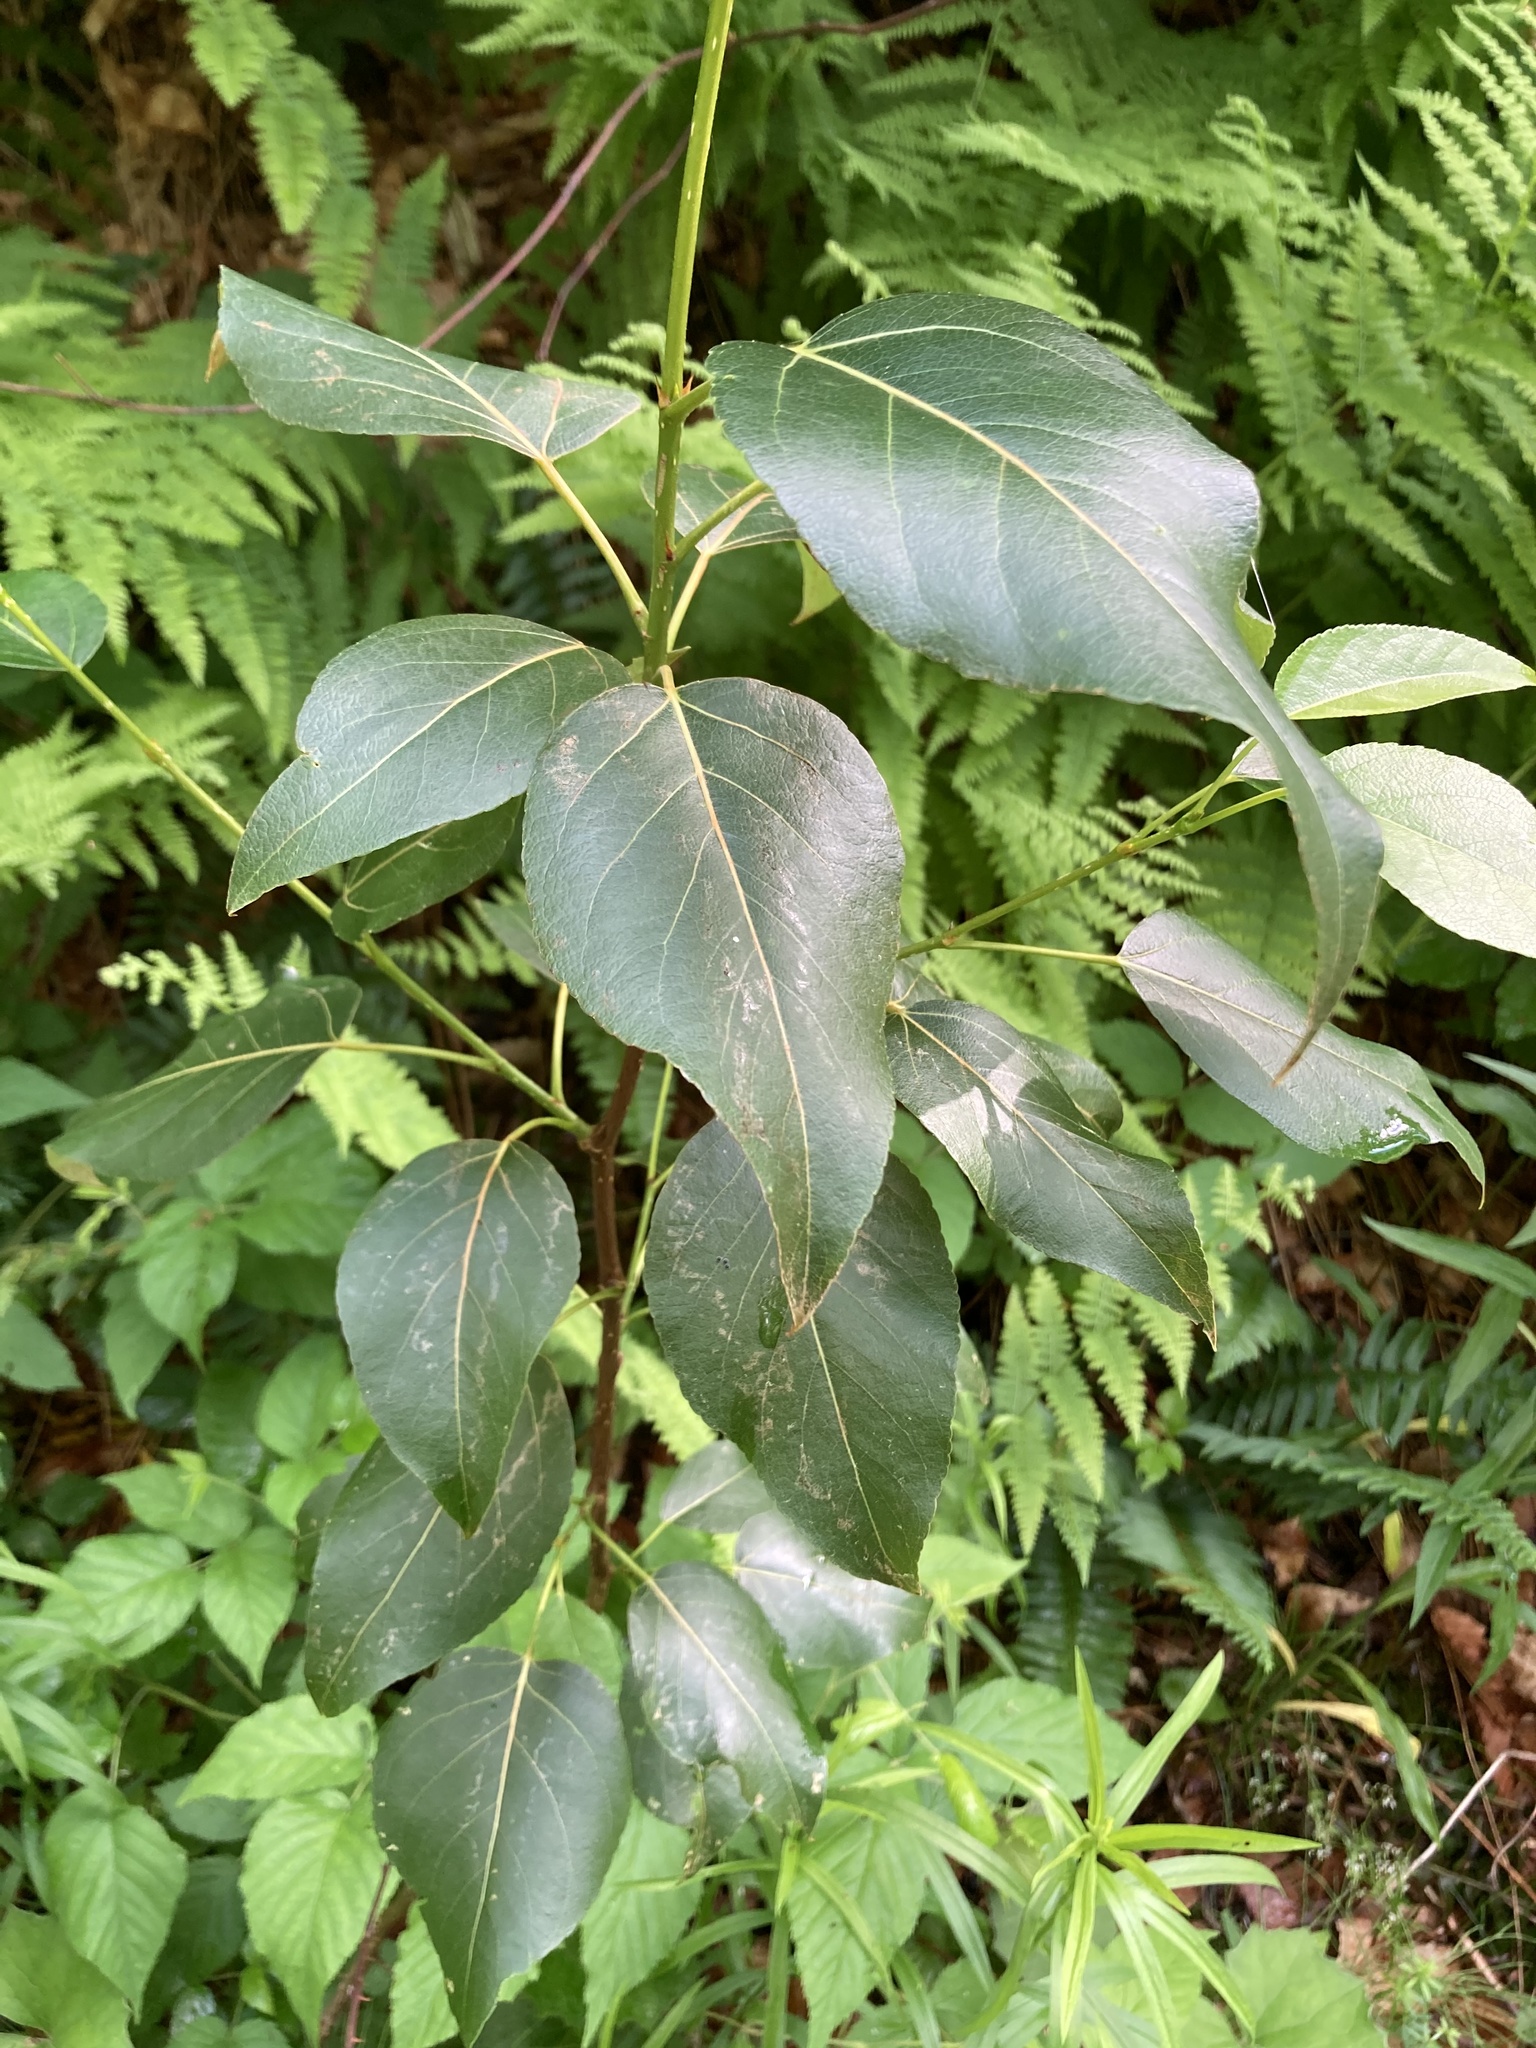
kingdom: Plantae
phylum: Tracheophyta
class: Magnoliopsida
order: Malpighiales
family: Salicaceae
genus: Populus
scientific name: Populus balsamifera
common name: Balsam poplar
